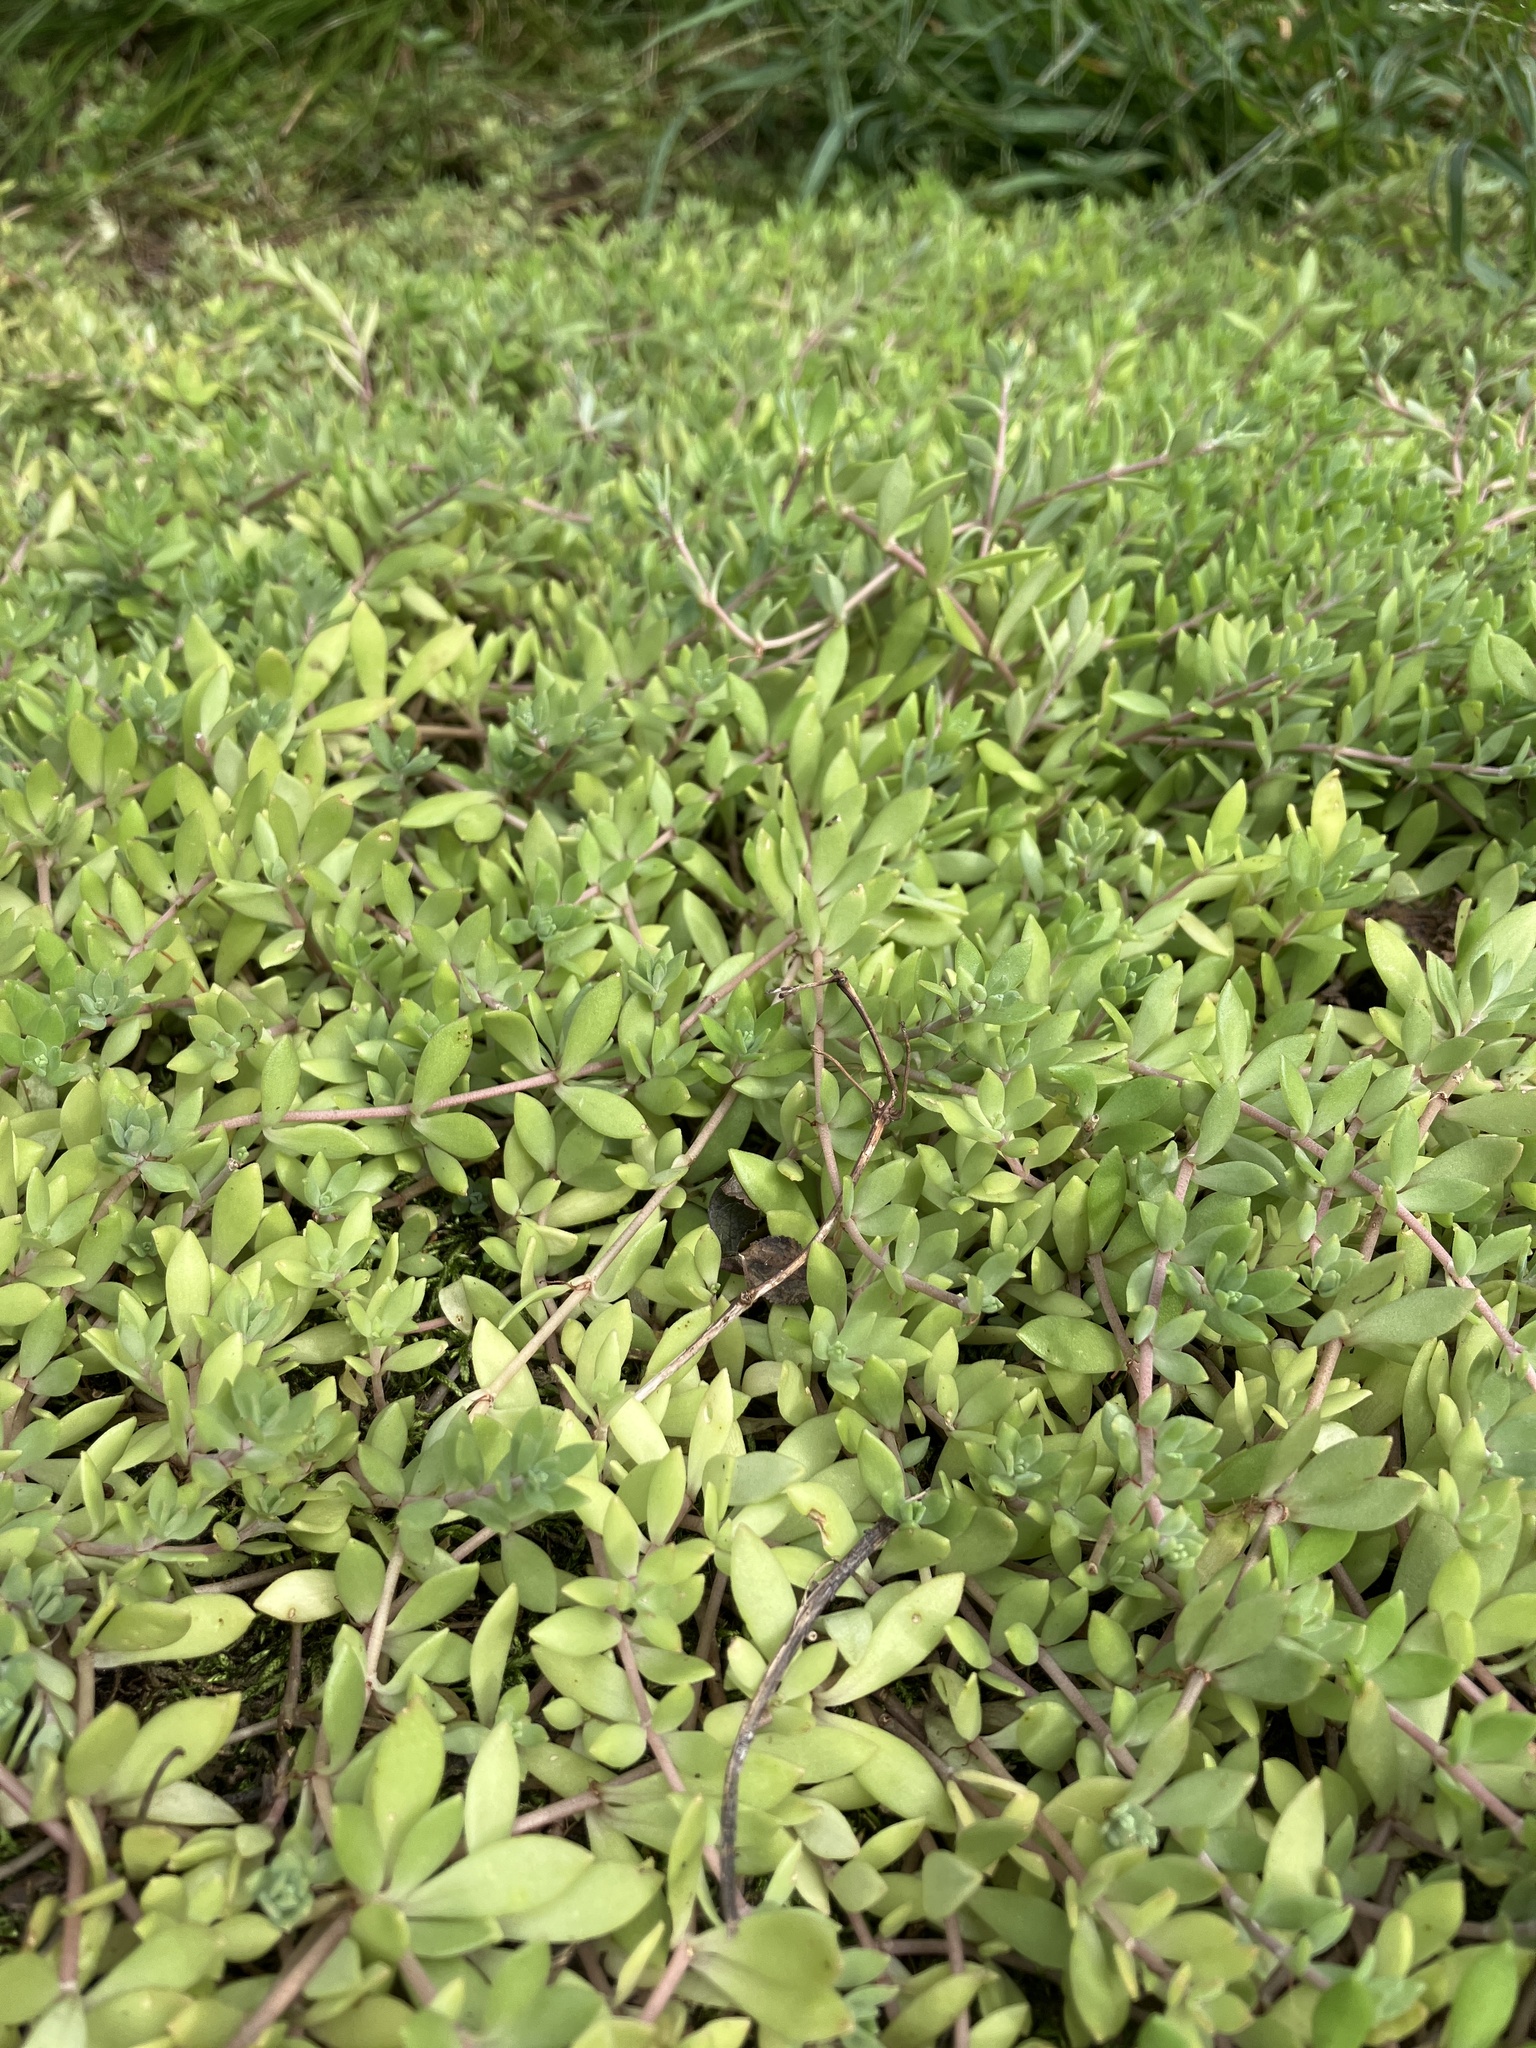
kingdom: Plantae
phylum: Tracheophyta
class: Magnoliopsida
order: Saxifragales
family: Crassulaceae
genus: Sedum
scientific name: Sedum sarmentosum
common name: Stringy stonecrop
